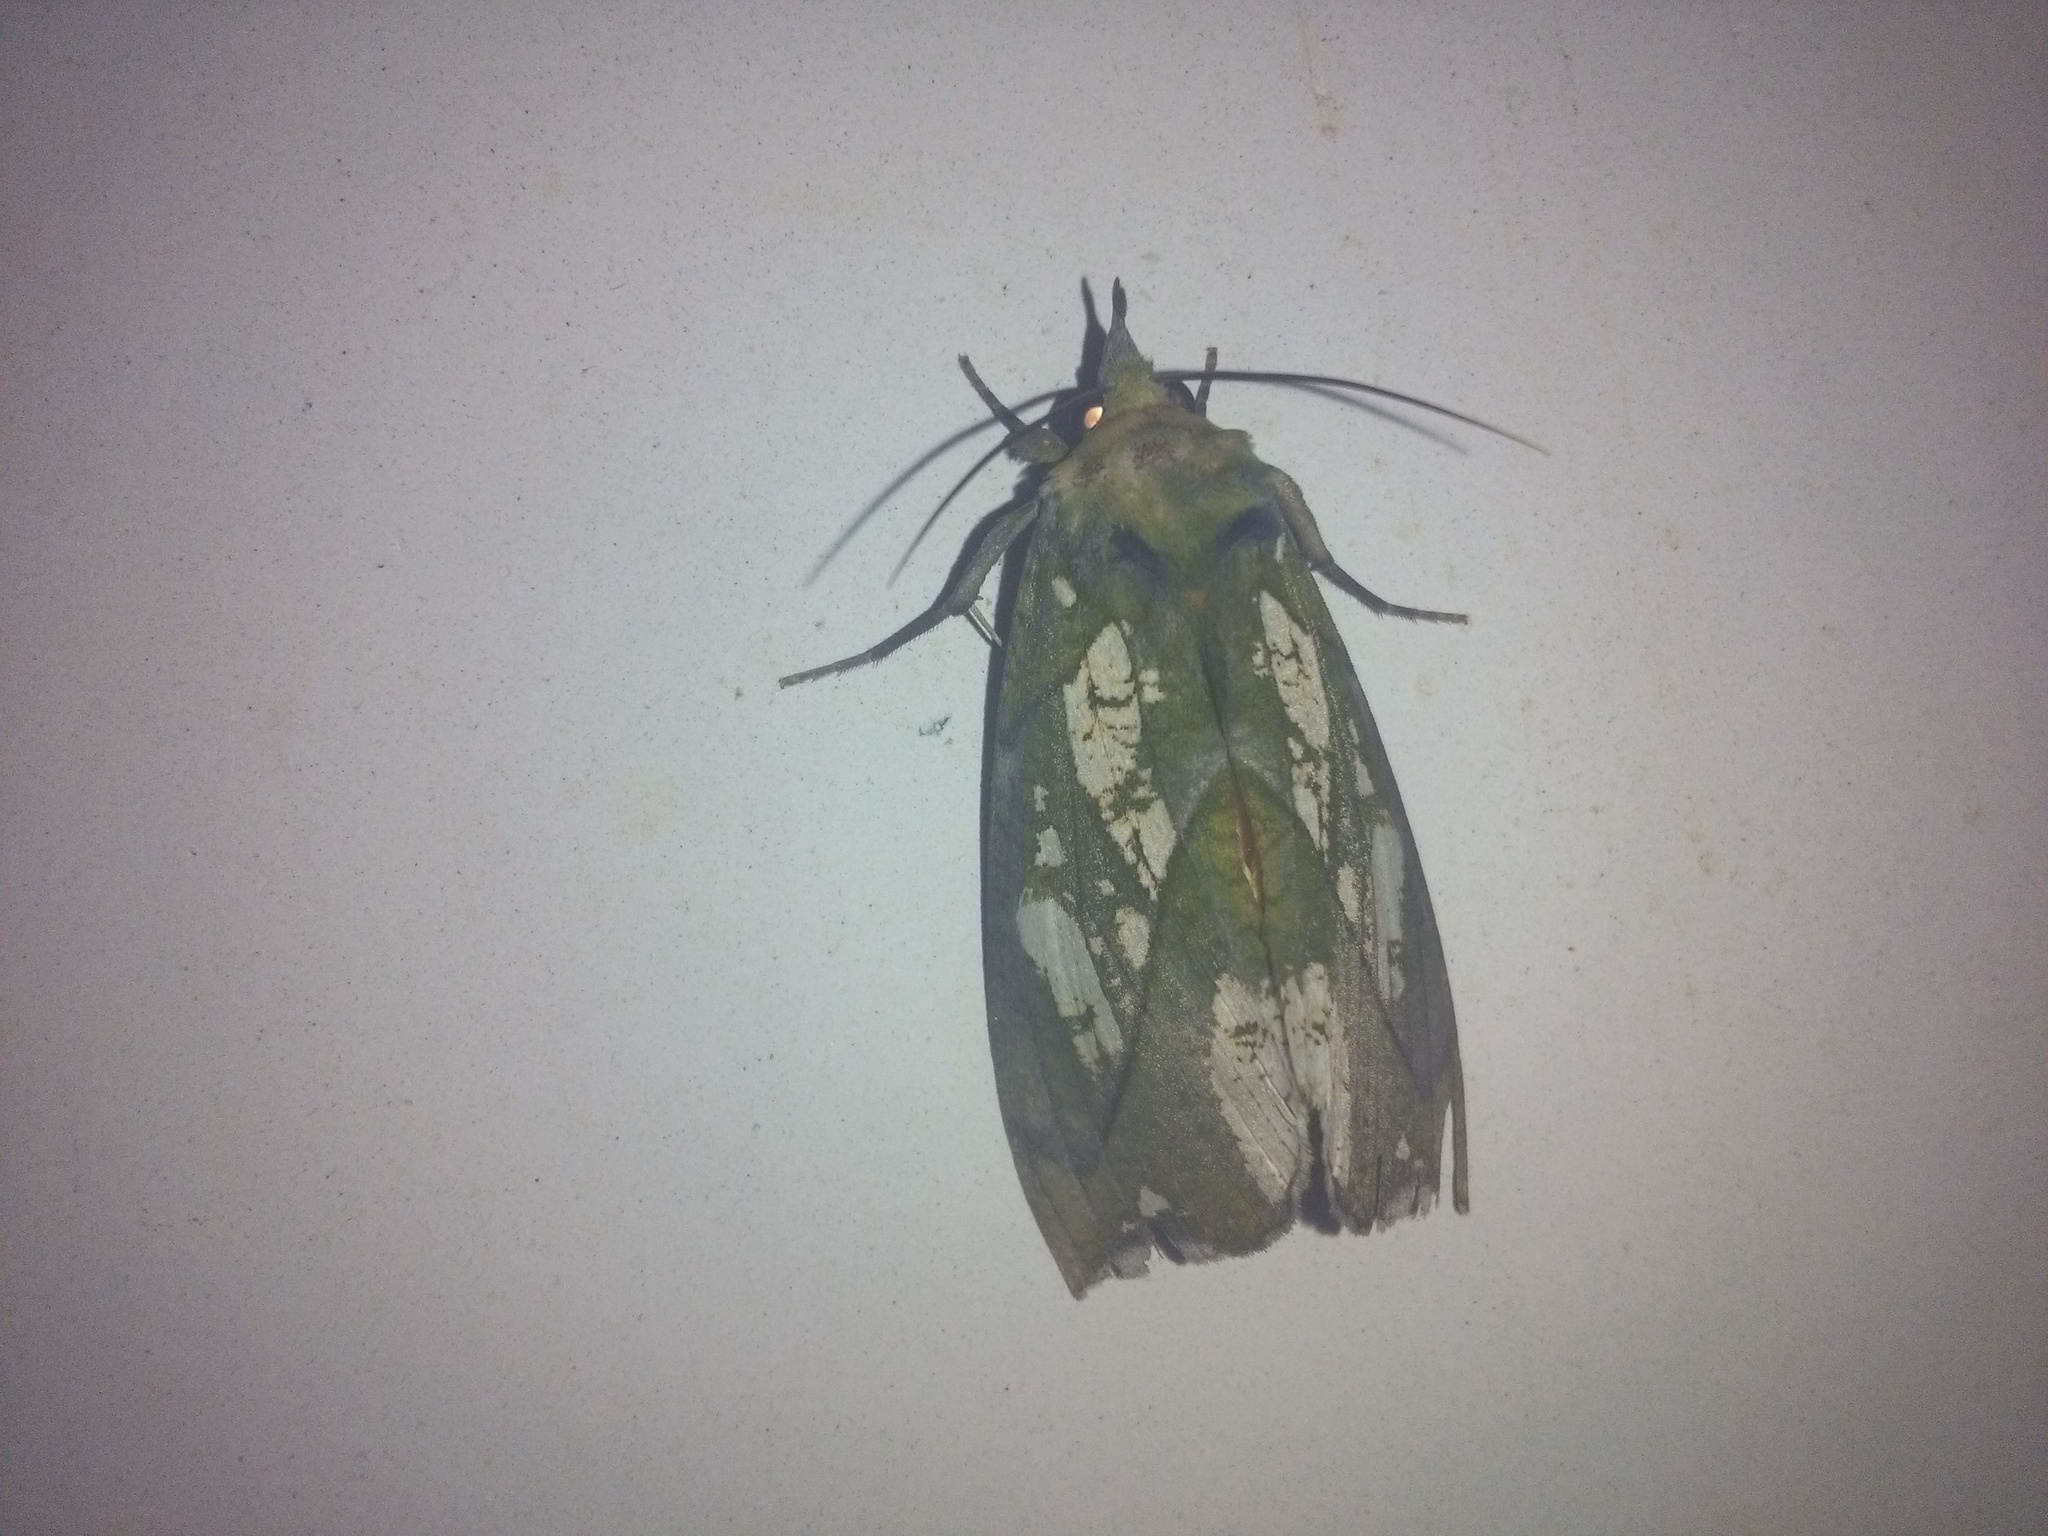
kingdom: Animalia
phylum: Arthropoda
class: Insecta
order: Lepidoptera
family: Erebidae
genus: Eudocima
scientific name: Eudocima hypermnestra
